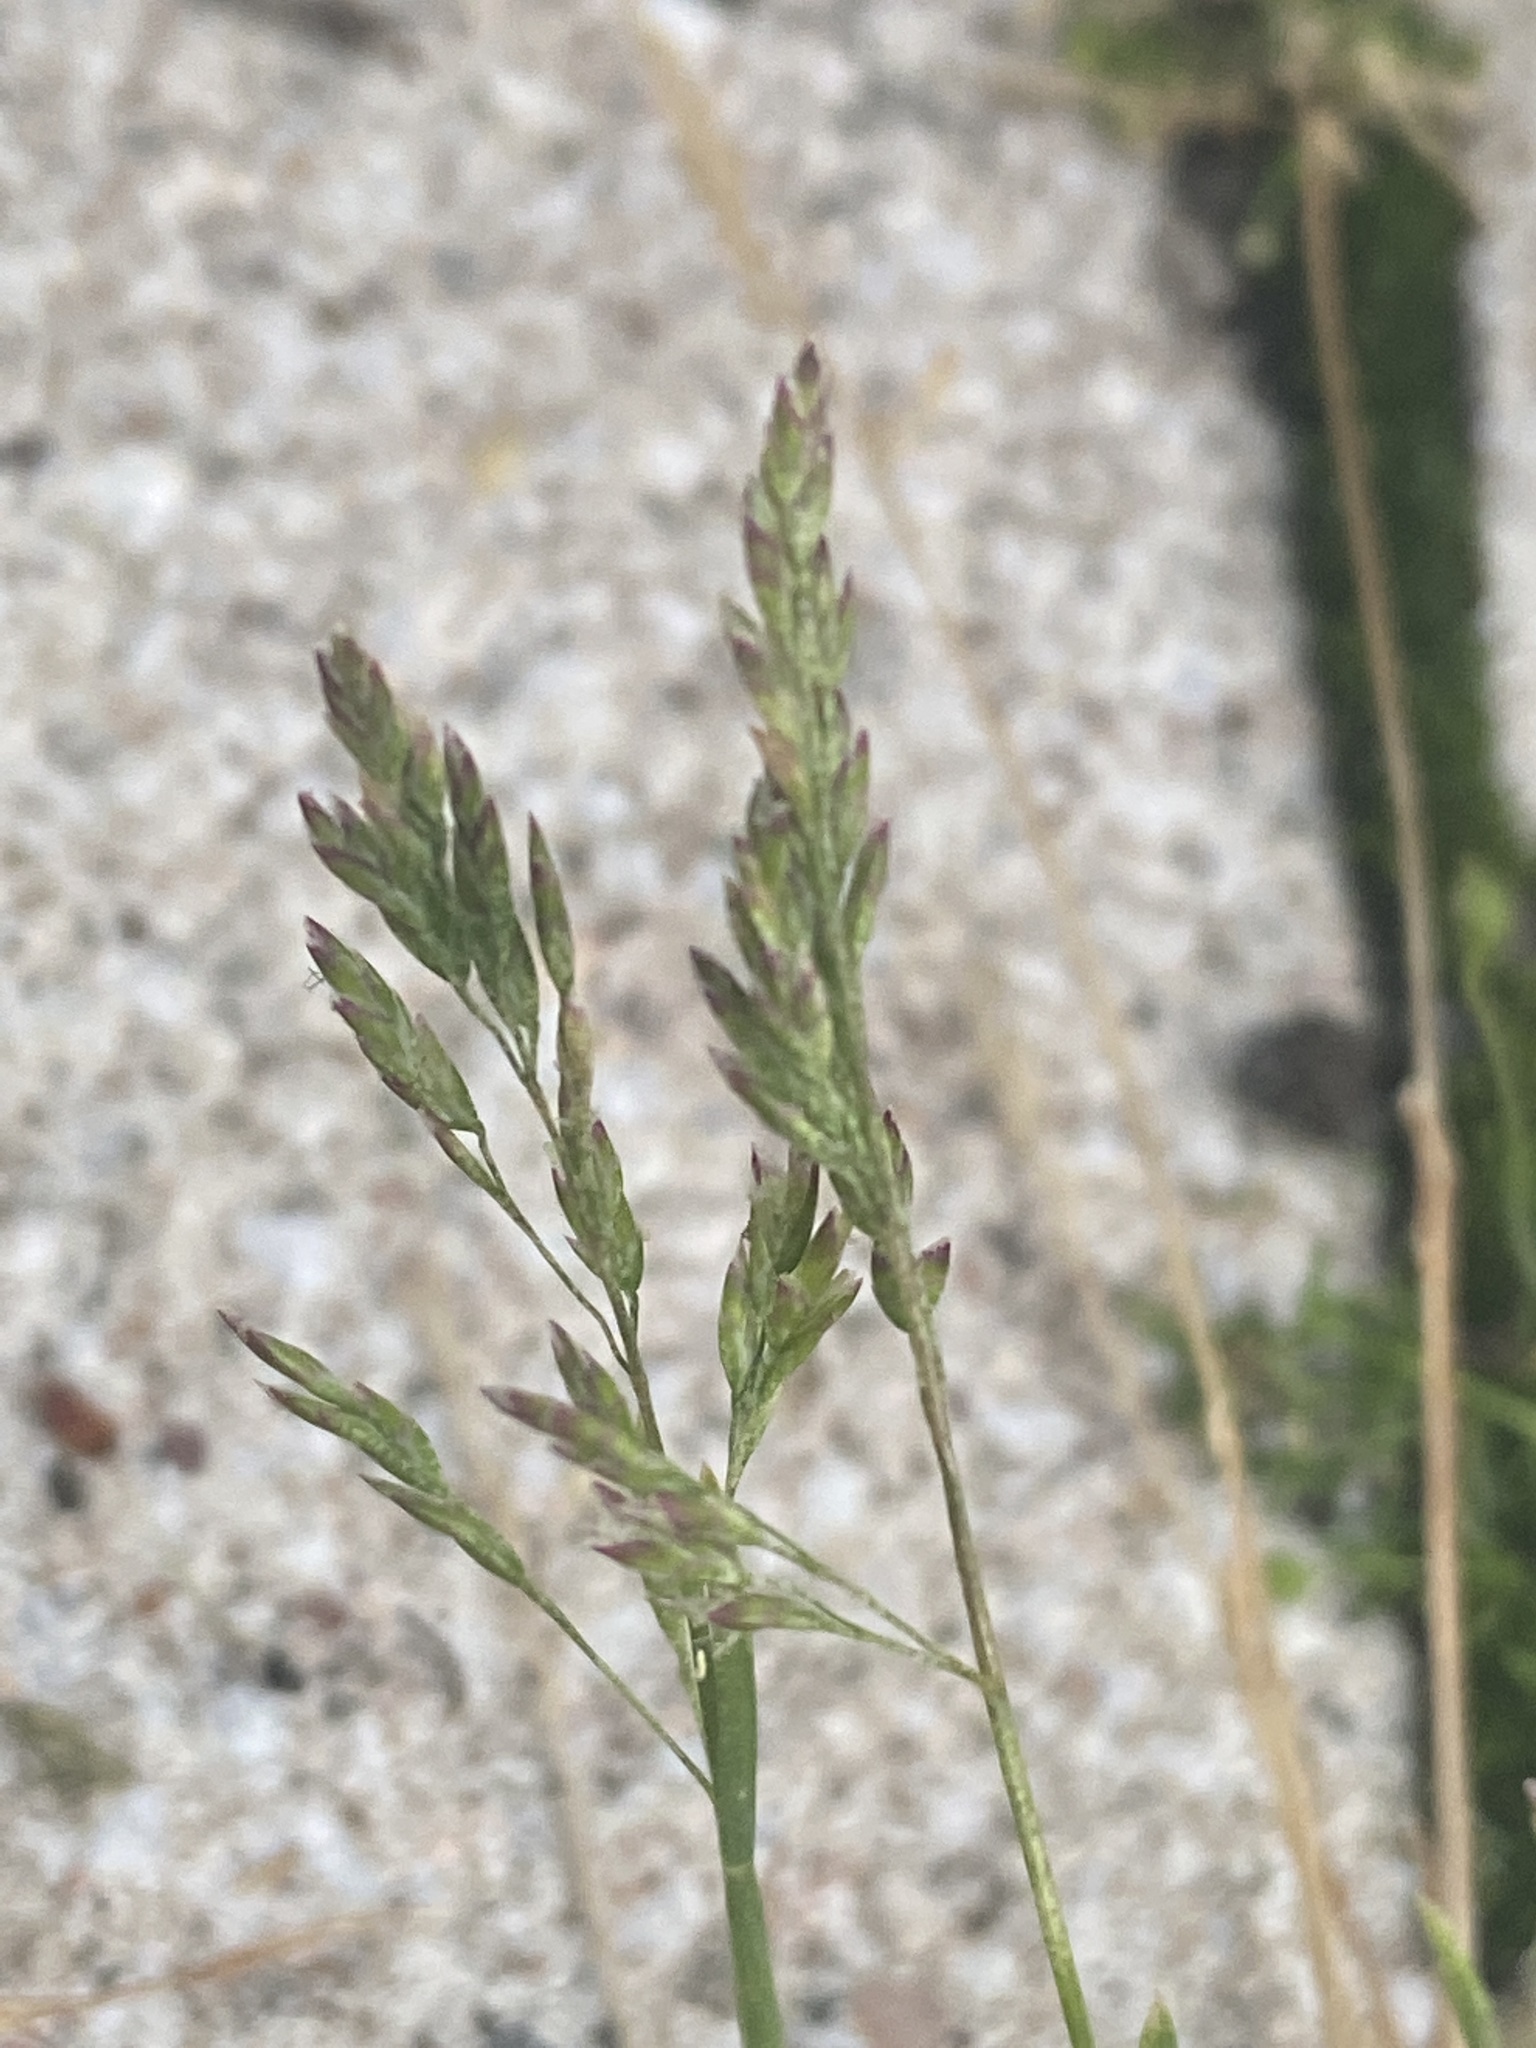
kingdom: Plantae
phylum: Tracheophyta
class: Liliopsida
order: Poales
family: Poaceae
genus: Poa
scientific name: Poa annua
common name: Annual bluegrass
